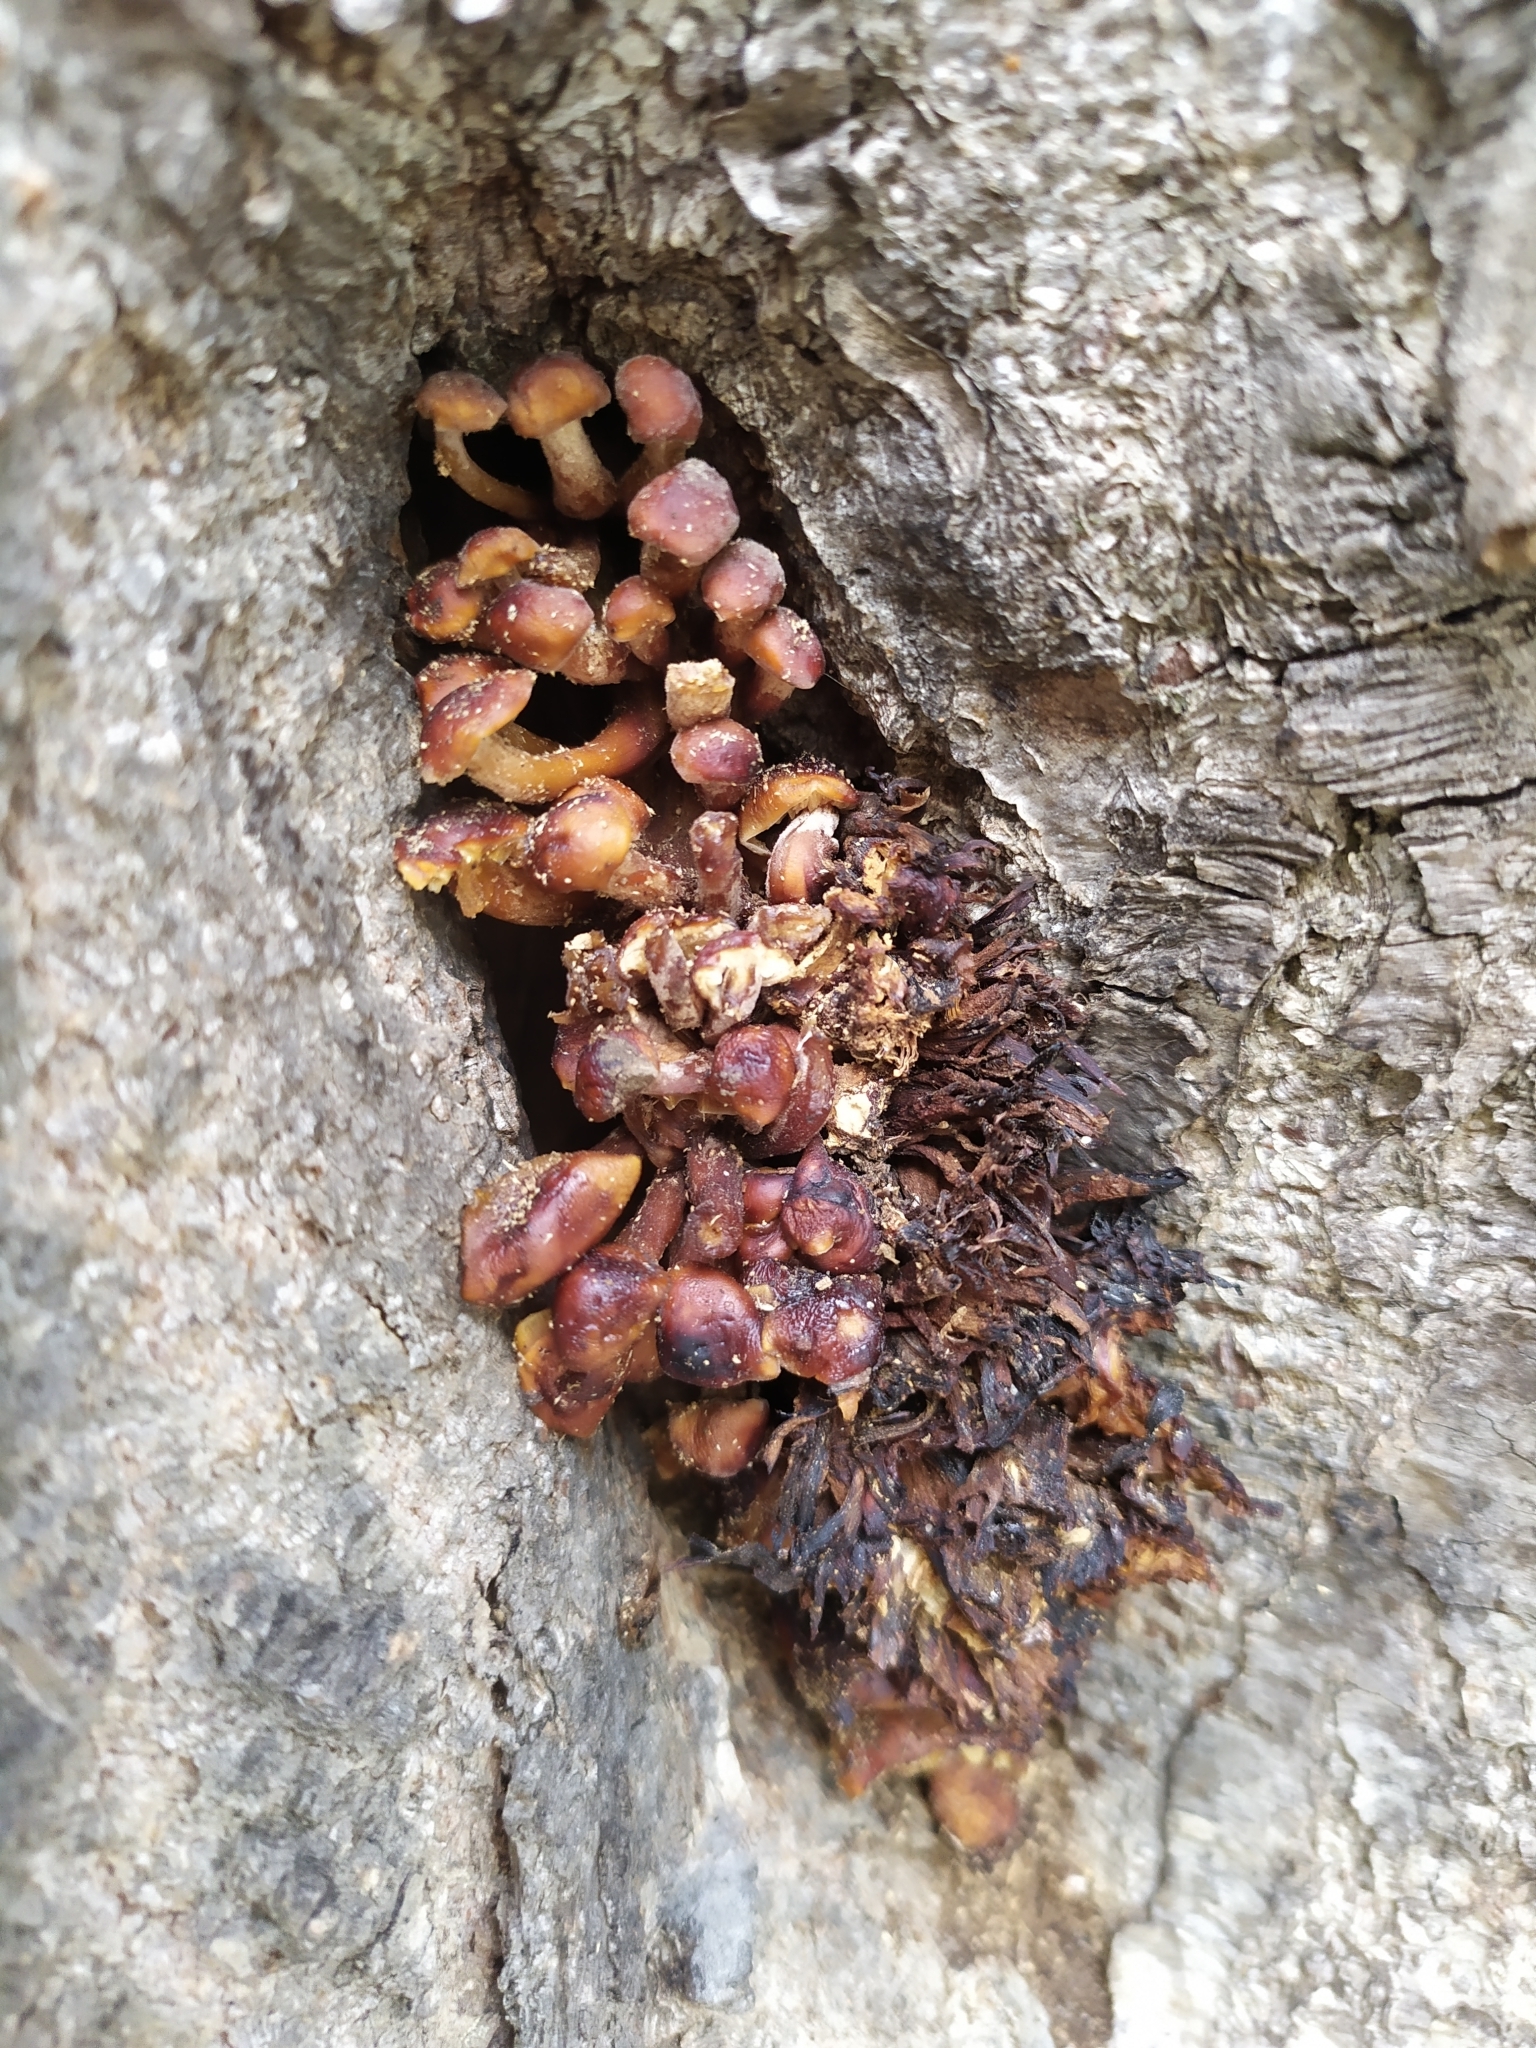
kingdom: Fungi
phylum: Basidiomycota
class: Agaricomycetes
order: Agaricales
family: Physalacriaceae
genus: Flammulina
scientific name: Flammulina
